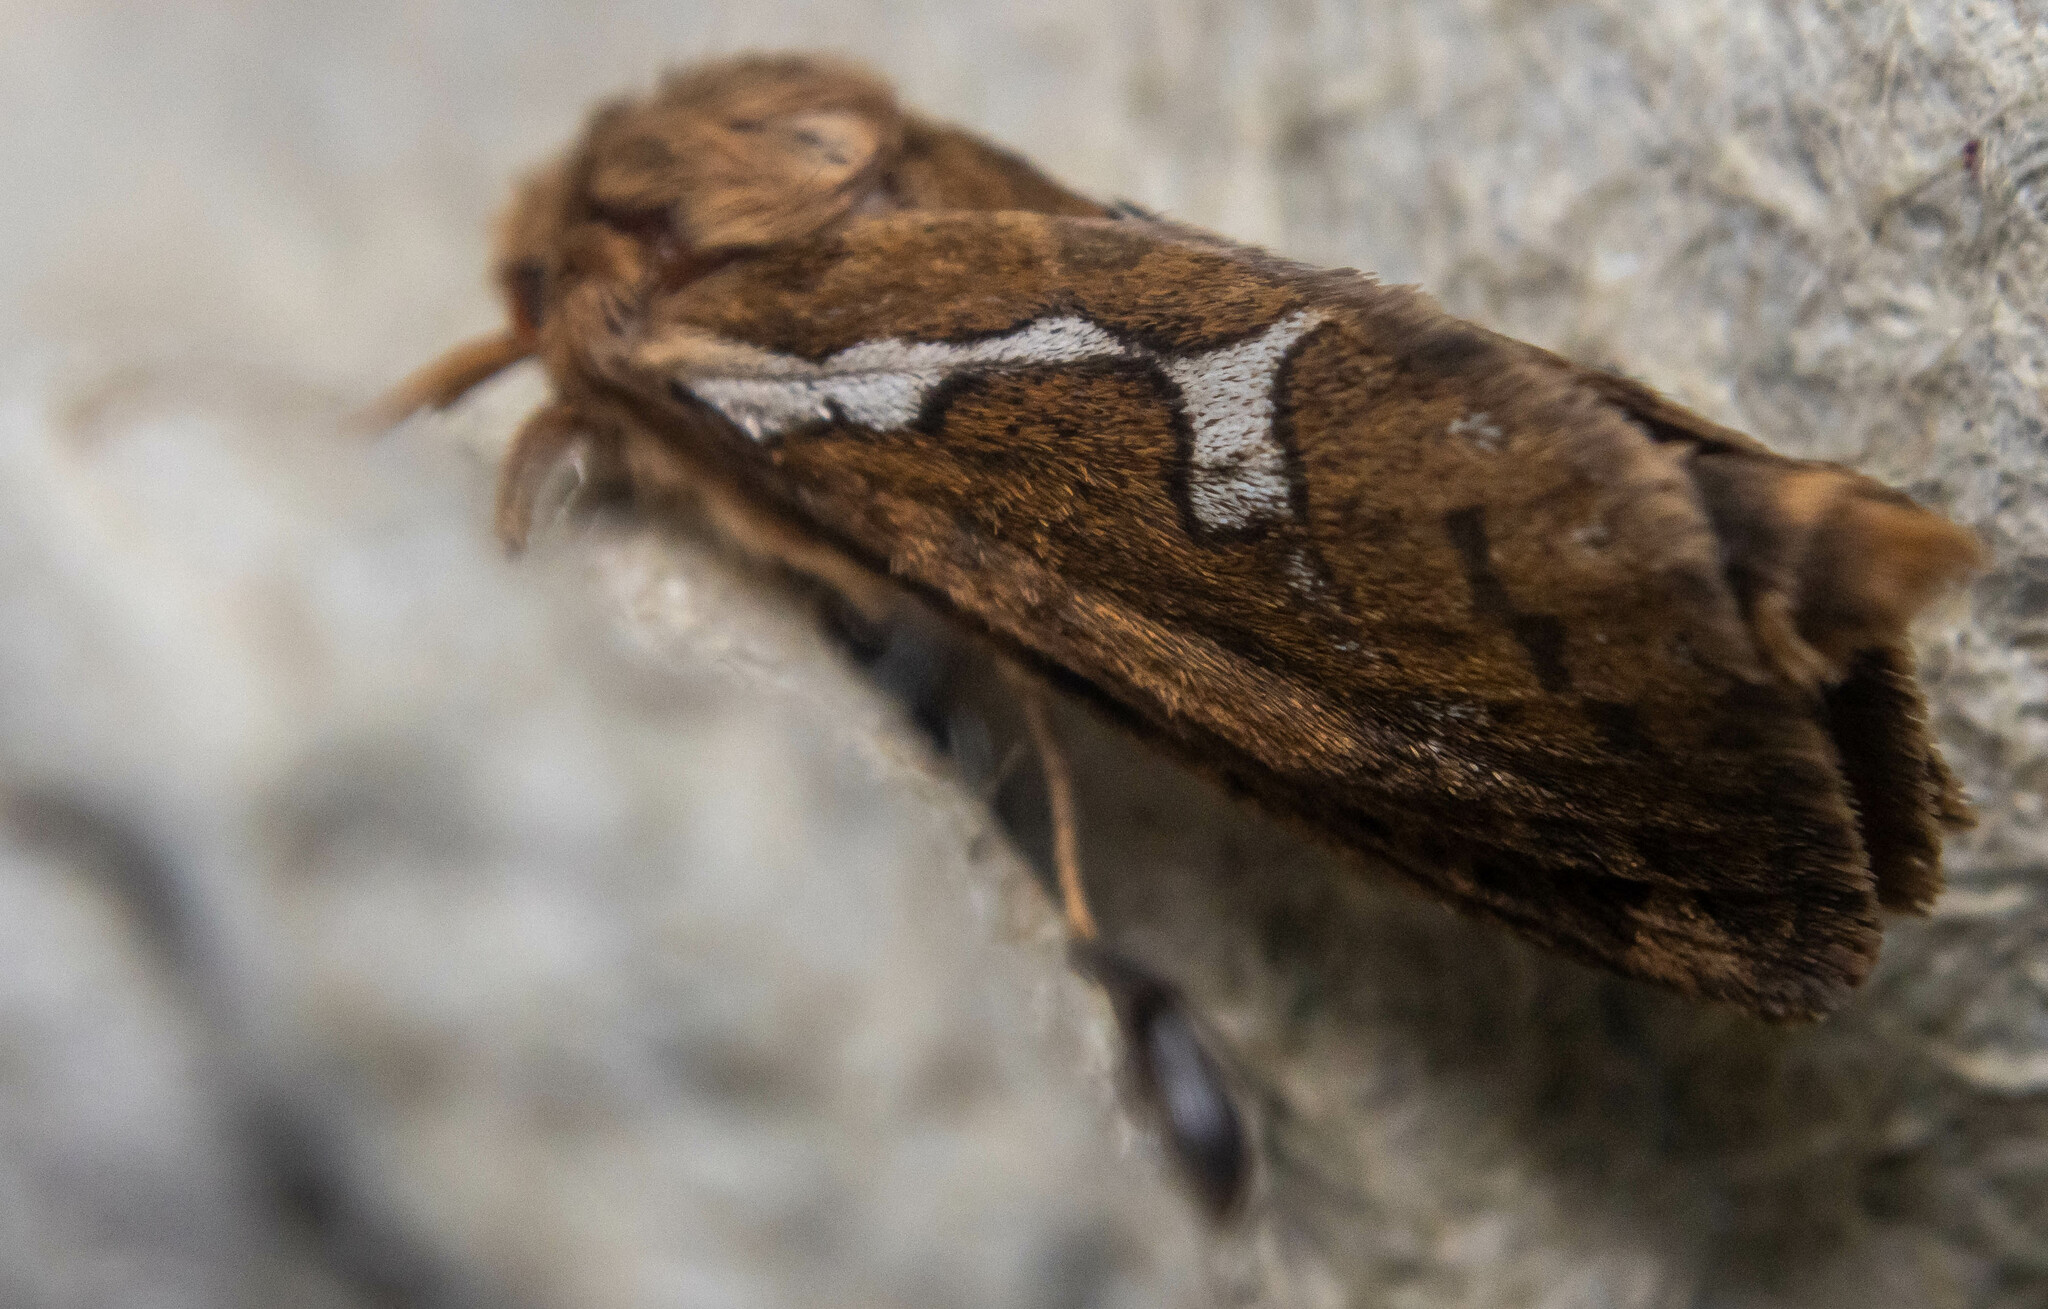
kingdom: Animalia
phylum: Arthropoda
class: Insecta
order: Lepidoptera
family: Hepialidae
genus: Korscheltellus
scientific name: Korscheltellus lupulina
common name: Common swift
